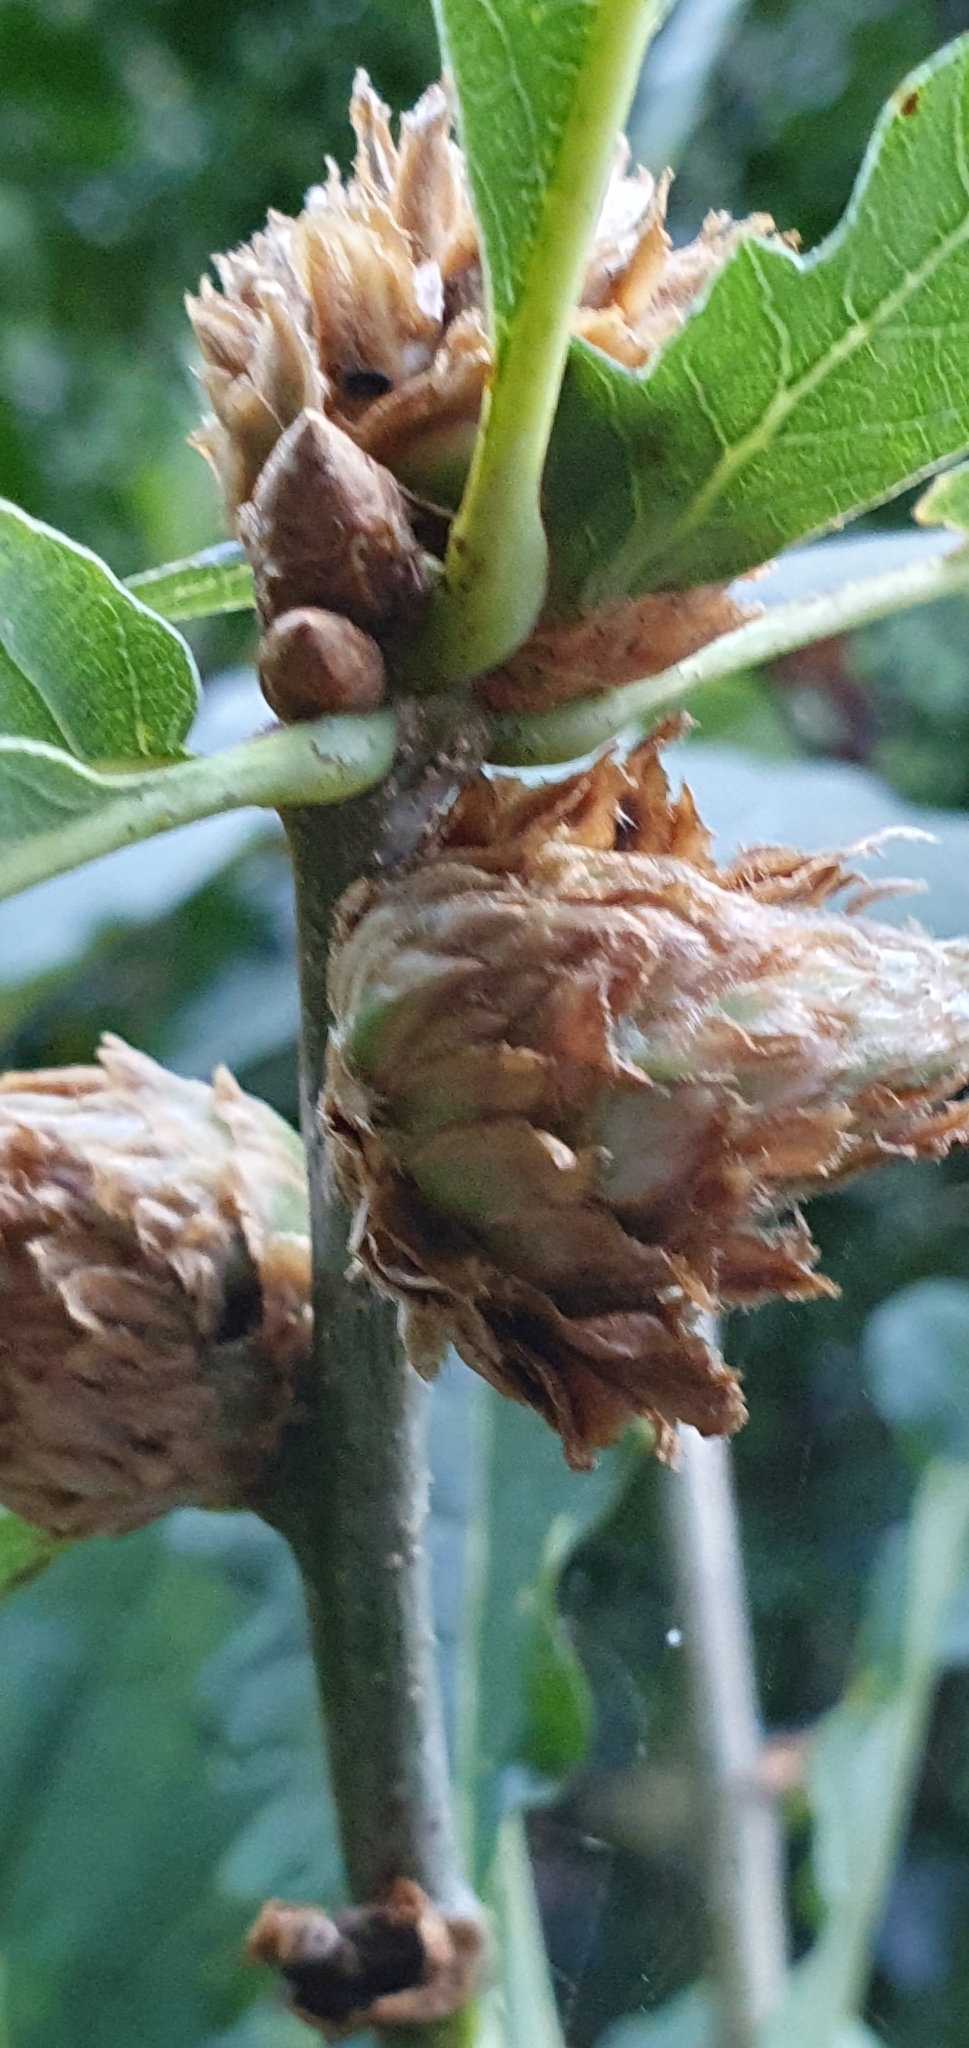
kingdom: Animalia
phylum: Arthropoda
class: Insecta
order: Hymenoptera
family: Cynipidae
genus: Andricus
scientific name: Andricus foecundatrix
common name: Artichoke gall
